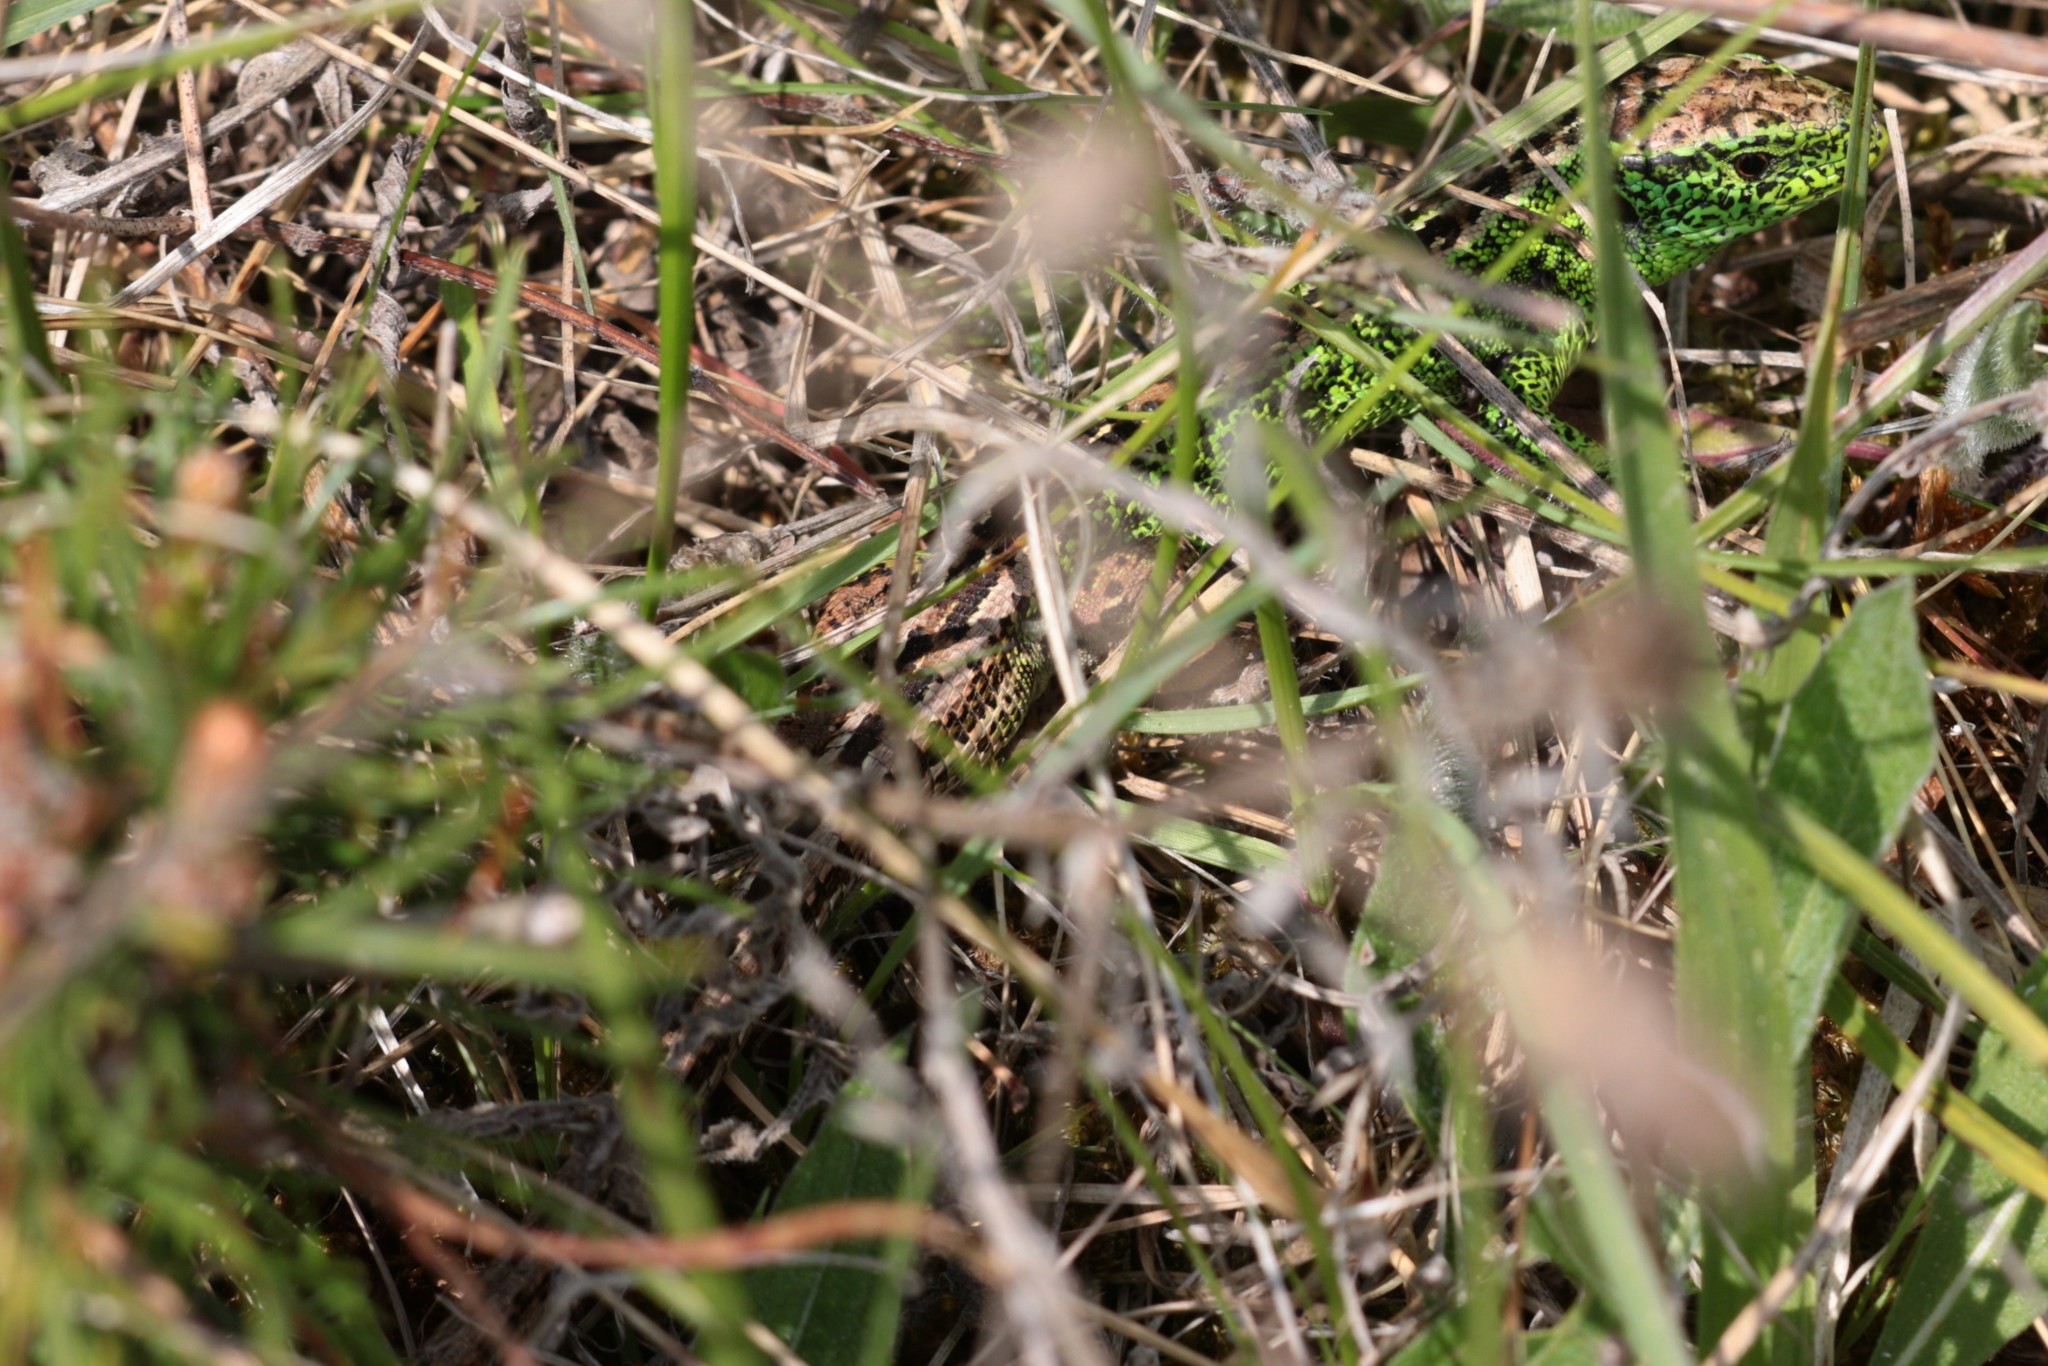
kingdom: Animalia
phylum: Chordata
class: Squamata
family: Lacertidae
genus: Lacerta
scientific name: Lacerta agilis
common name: Sand lizard
